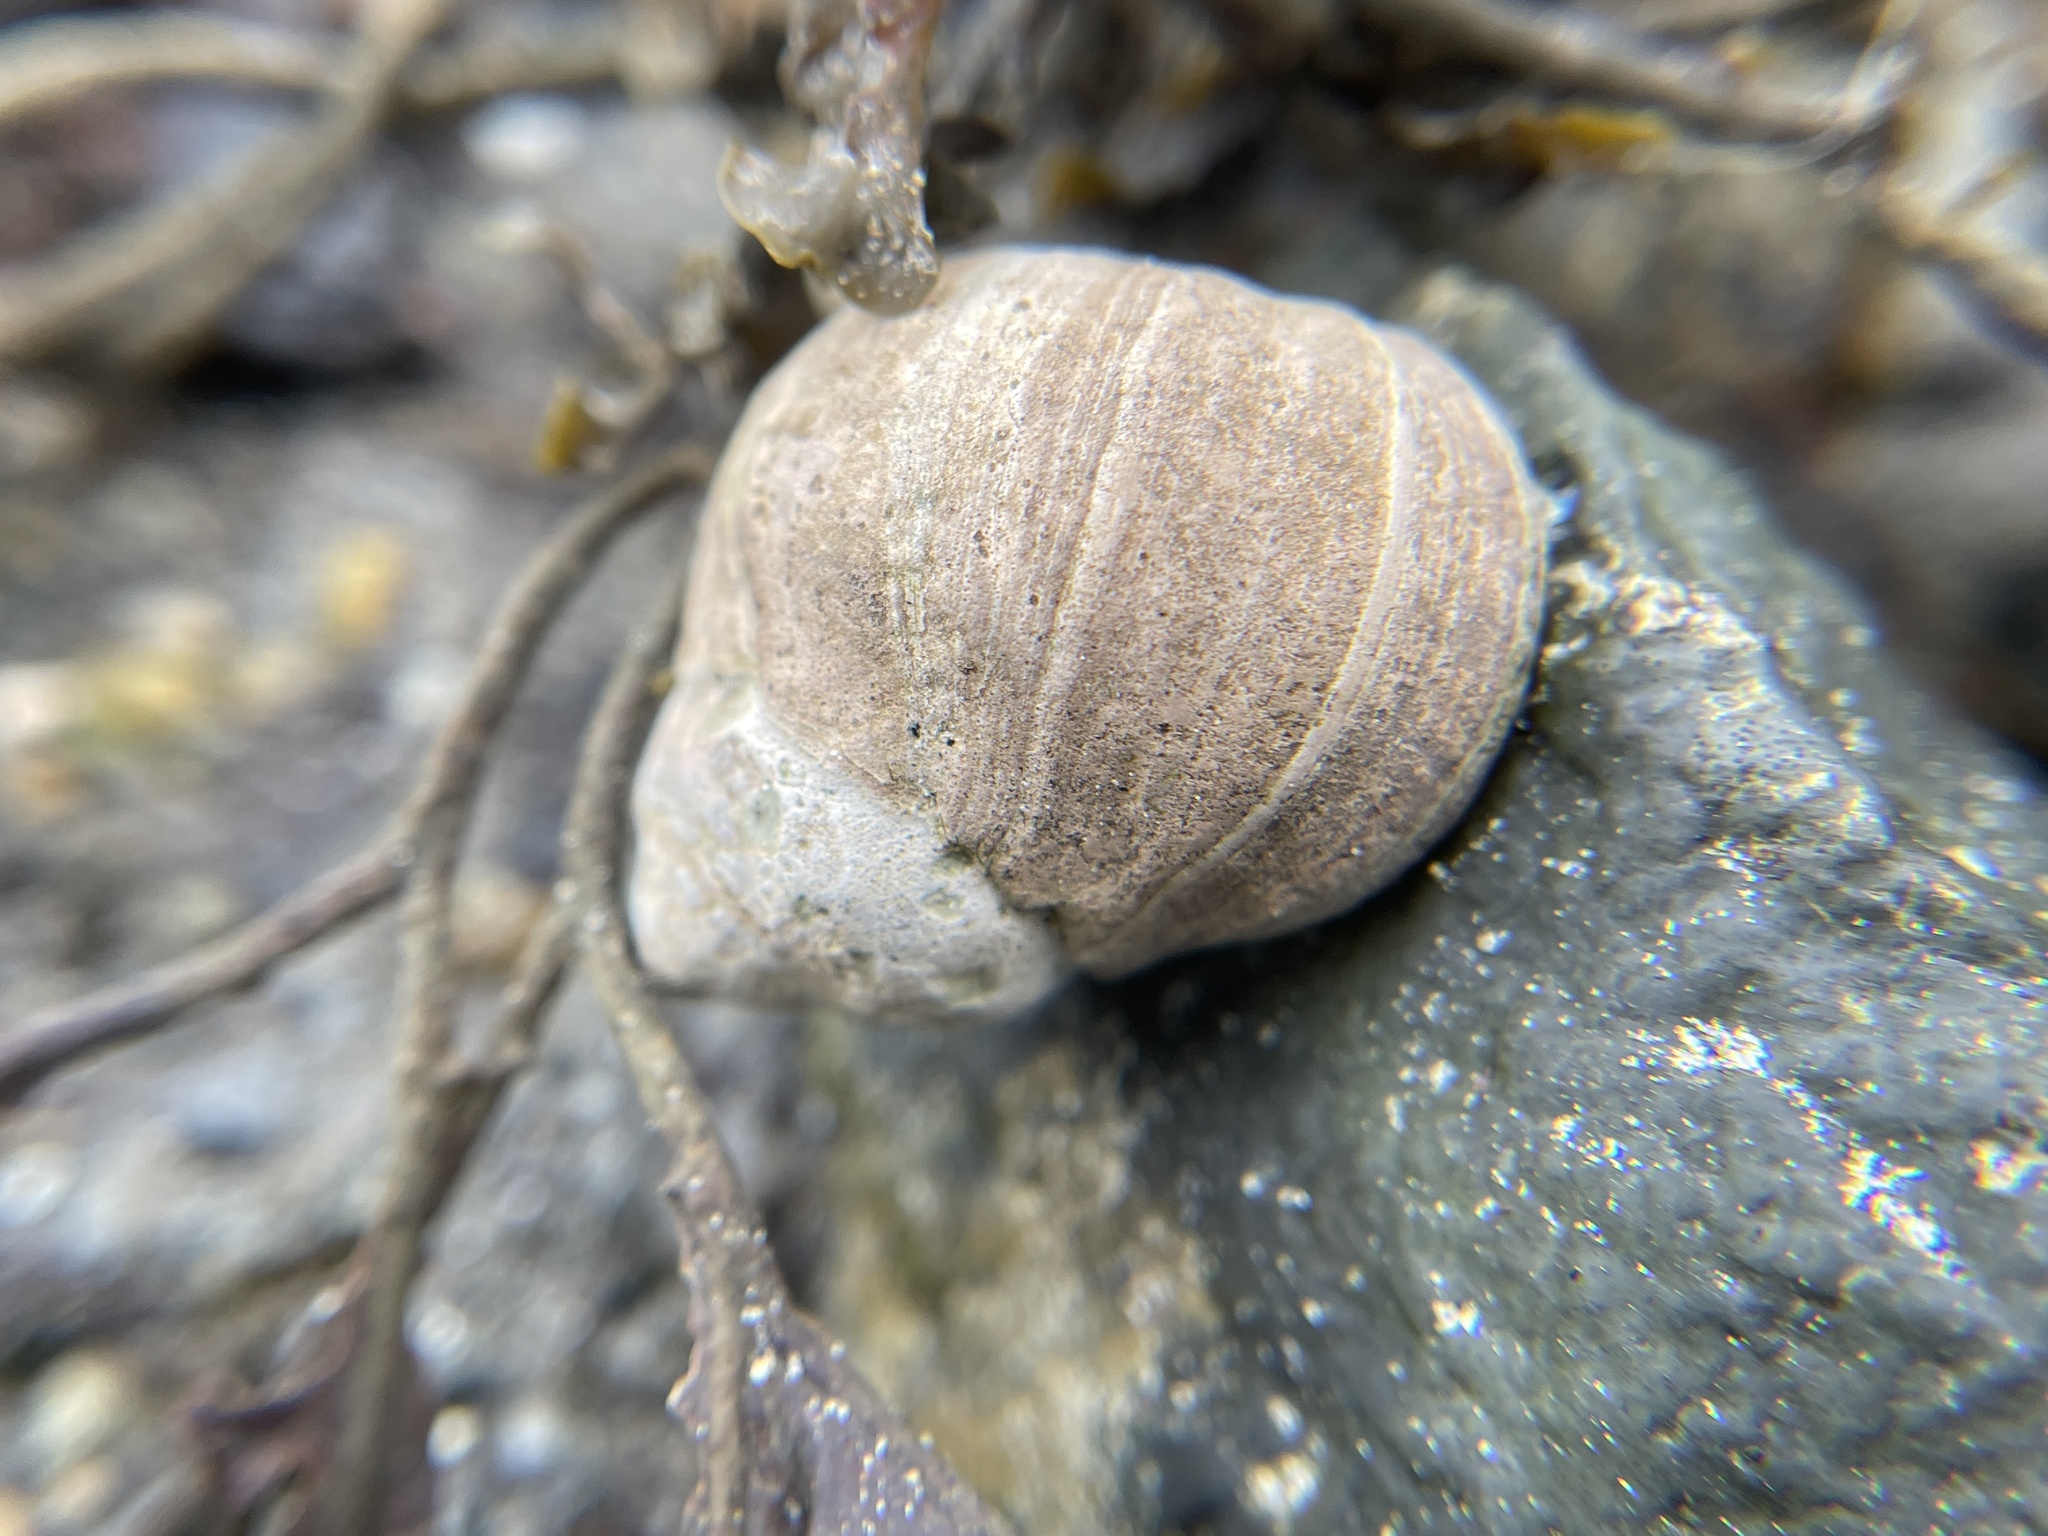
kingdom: Animalia
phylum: Mollusca
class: Gastropoda
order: Littorinimorpha
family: Littorinidae
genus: Littorina
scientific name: Littorina littorea
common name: Common periwinkle
